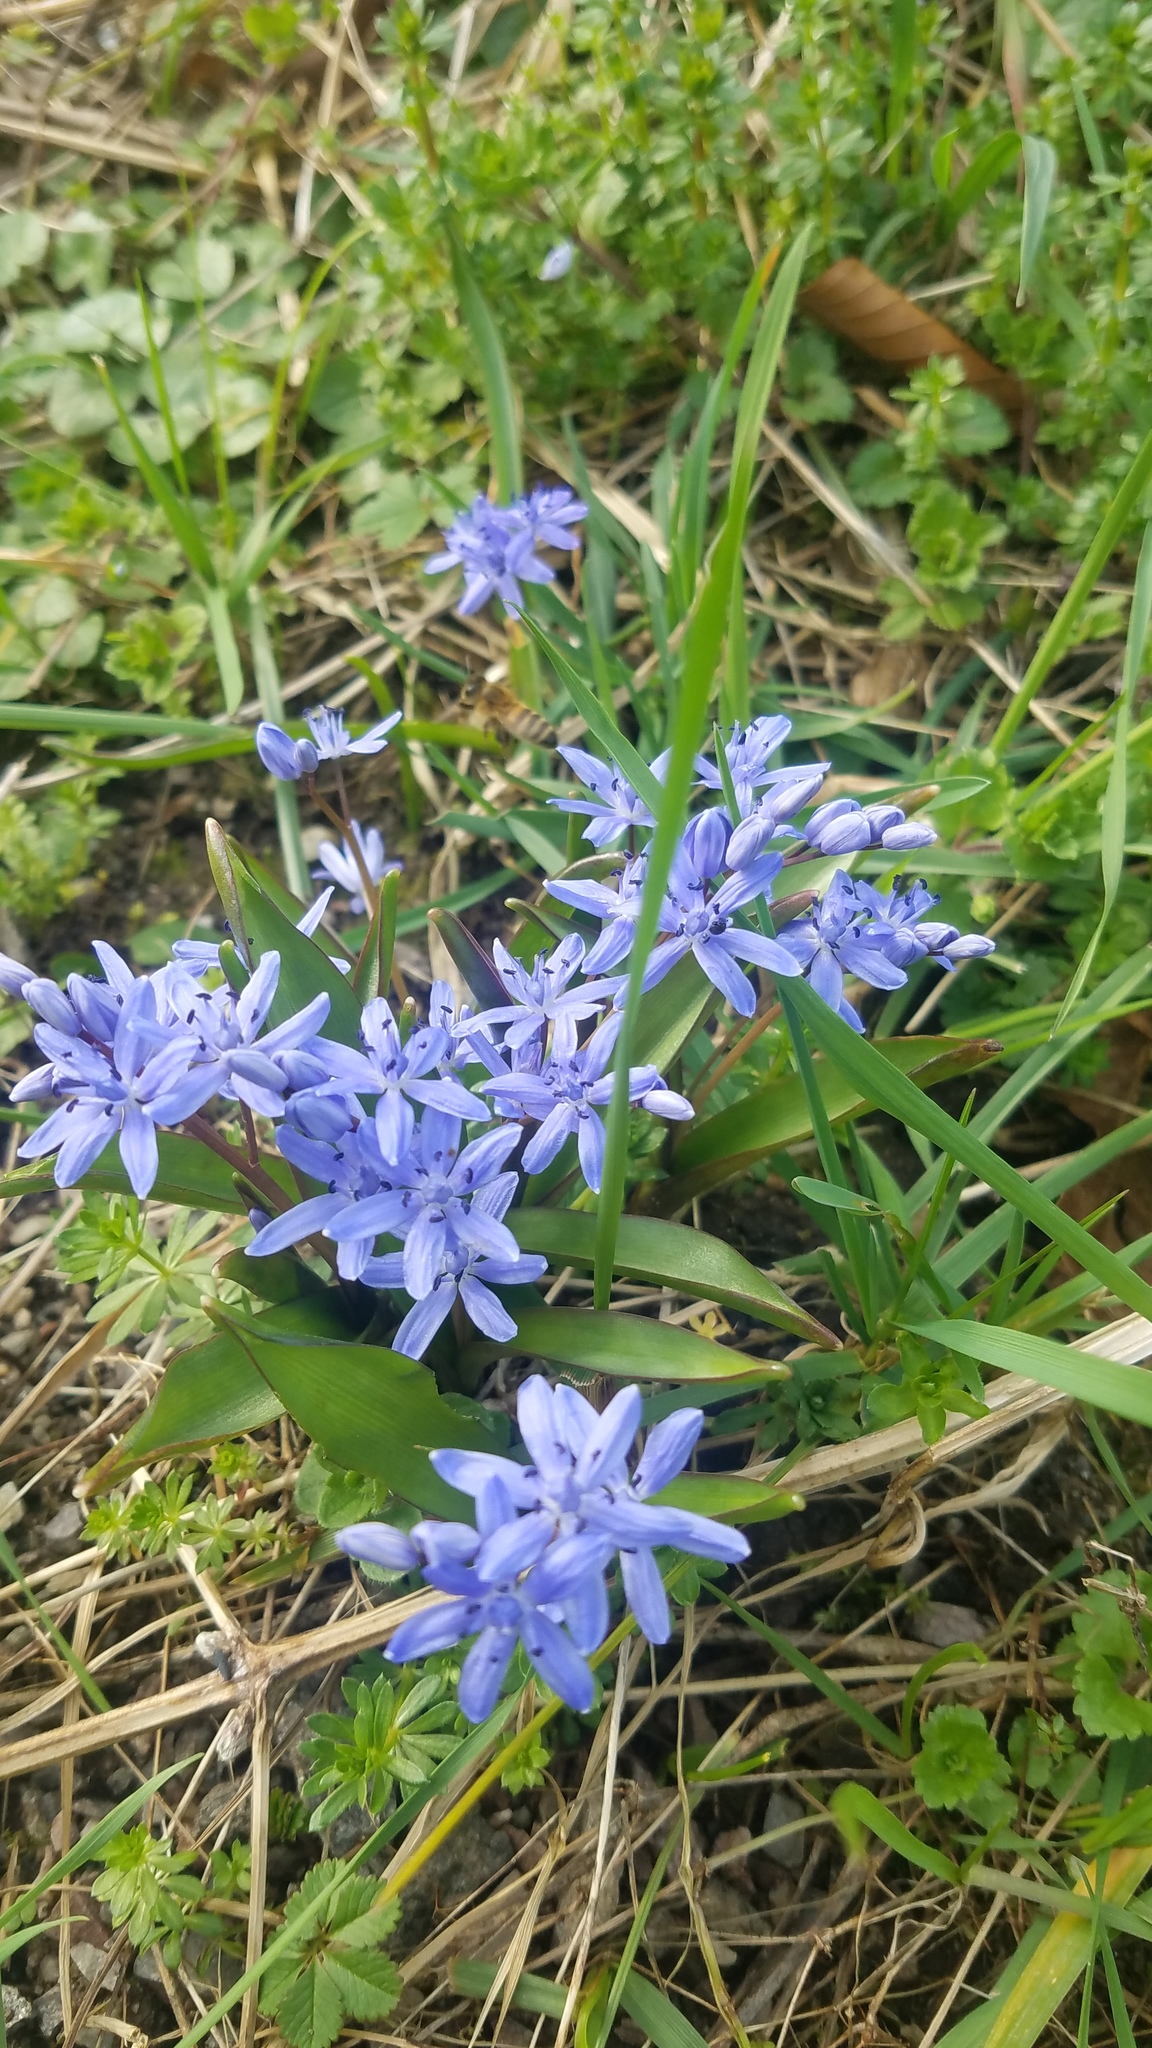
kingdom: Plantae
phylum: Tracheophyta
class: Liliopsida
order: Asparagales
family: Asparagaceae
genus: Scilla
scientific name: Scilla bifolia
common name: Alpine squill
